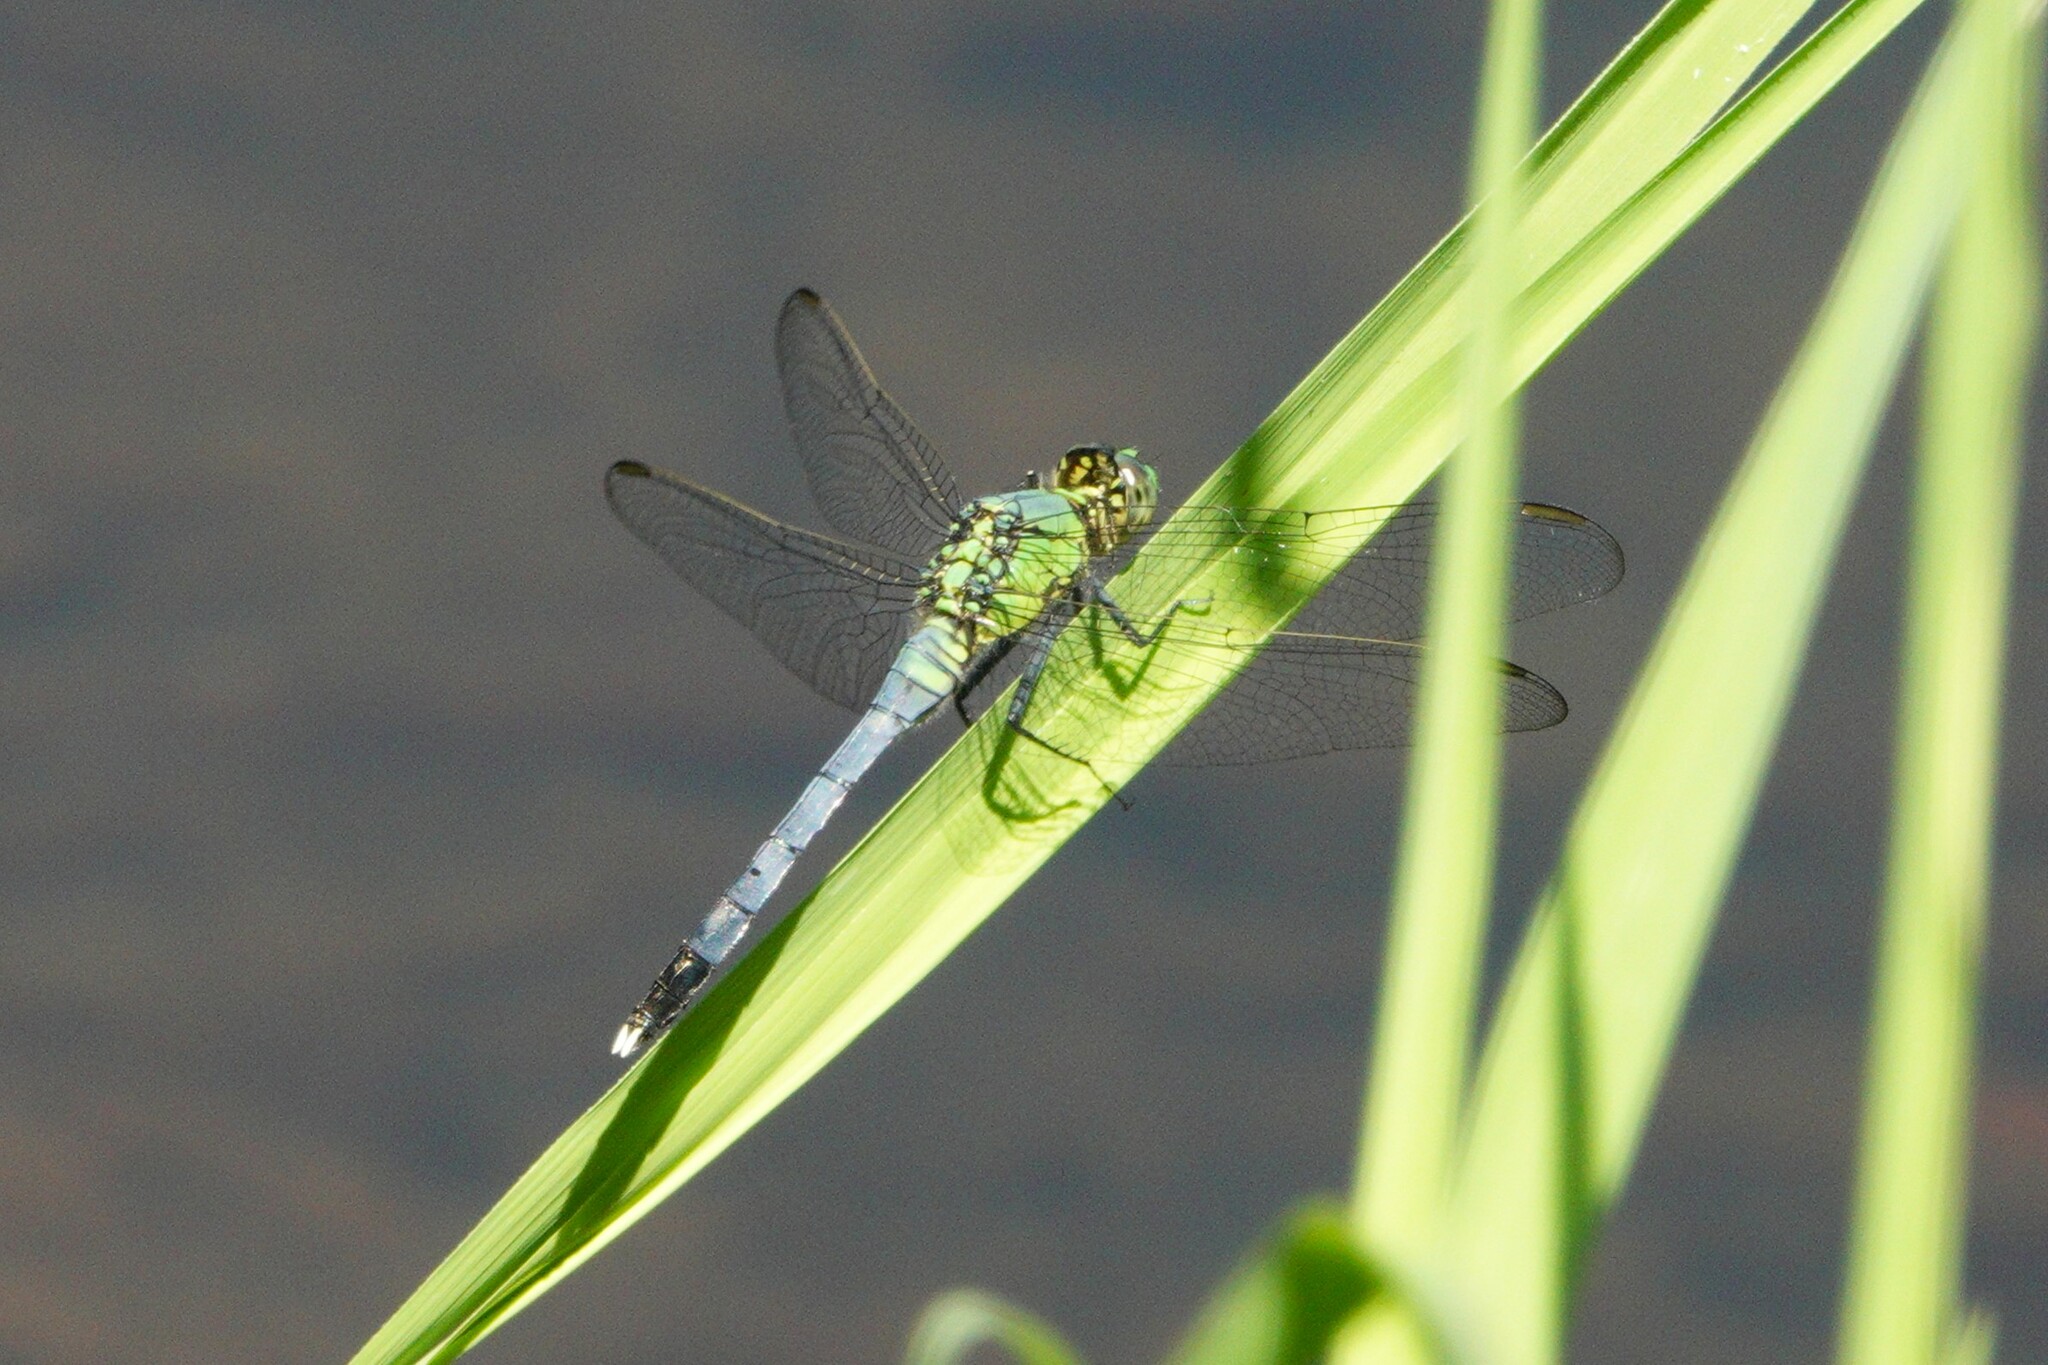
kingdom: Animalia
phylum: Arthropoda
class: Insecta
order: Odonata
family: Libellulidae
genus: Erythemis
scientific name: Erythemis simplicicollis
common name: Eastern pondhawk
